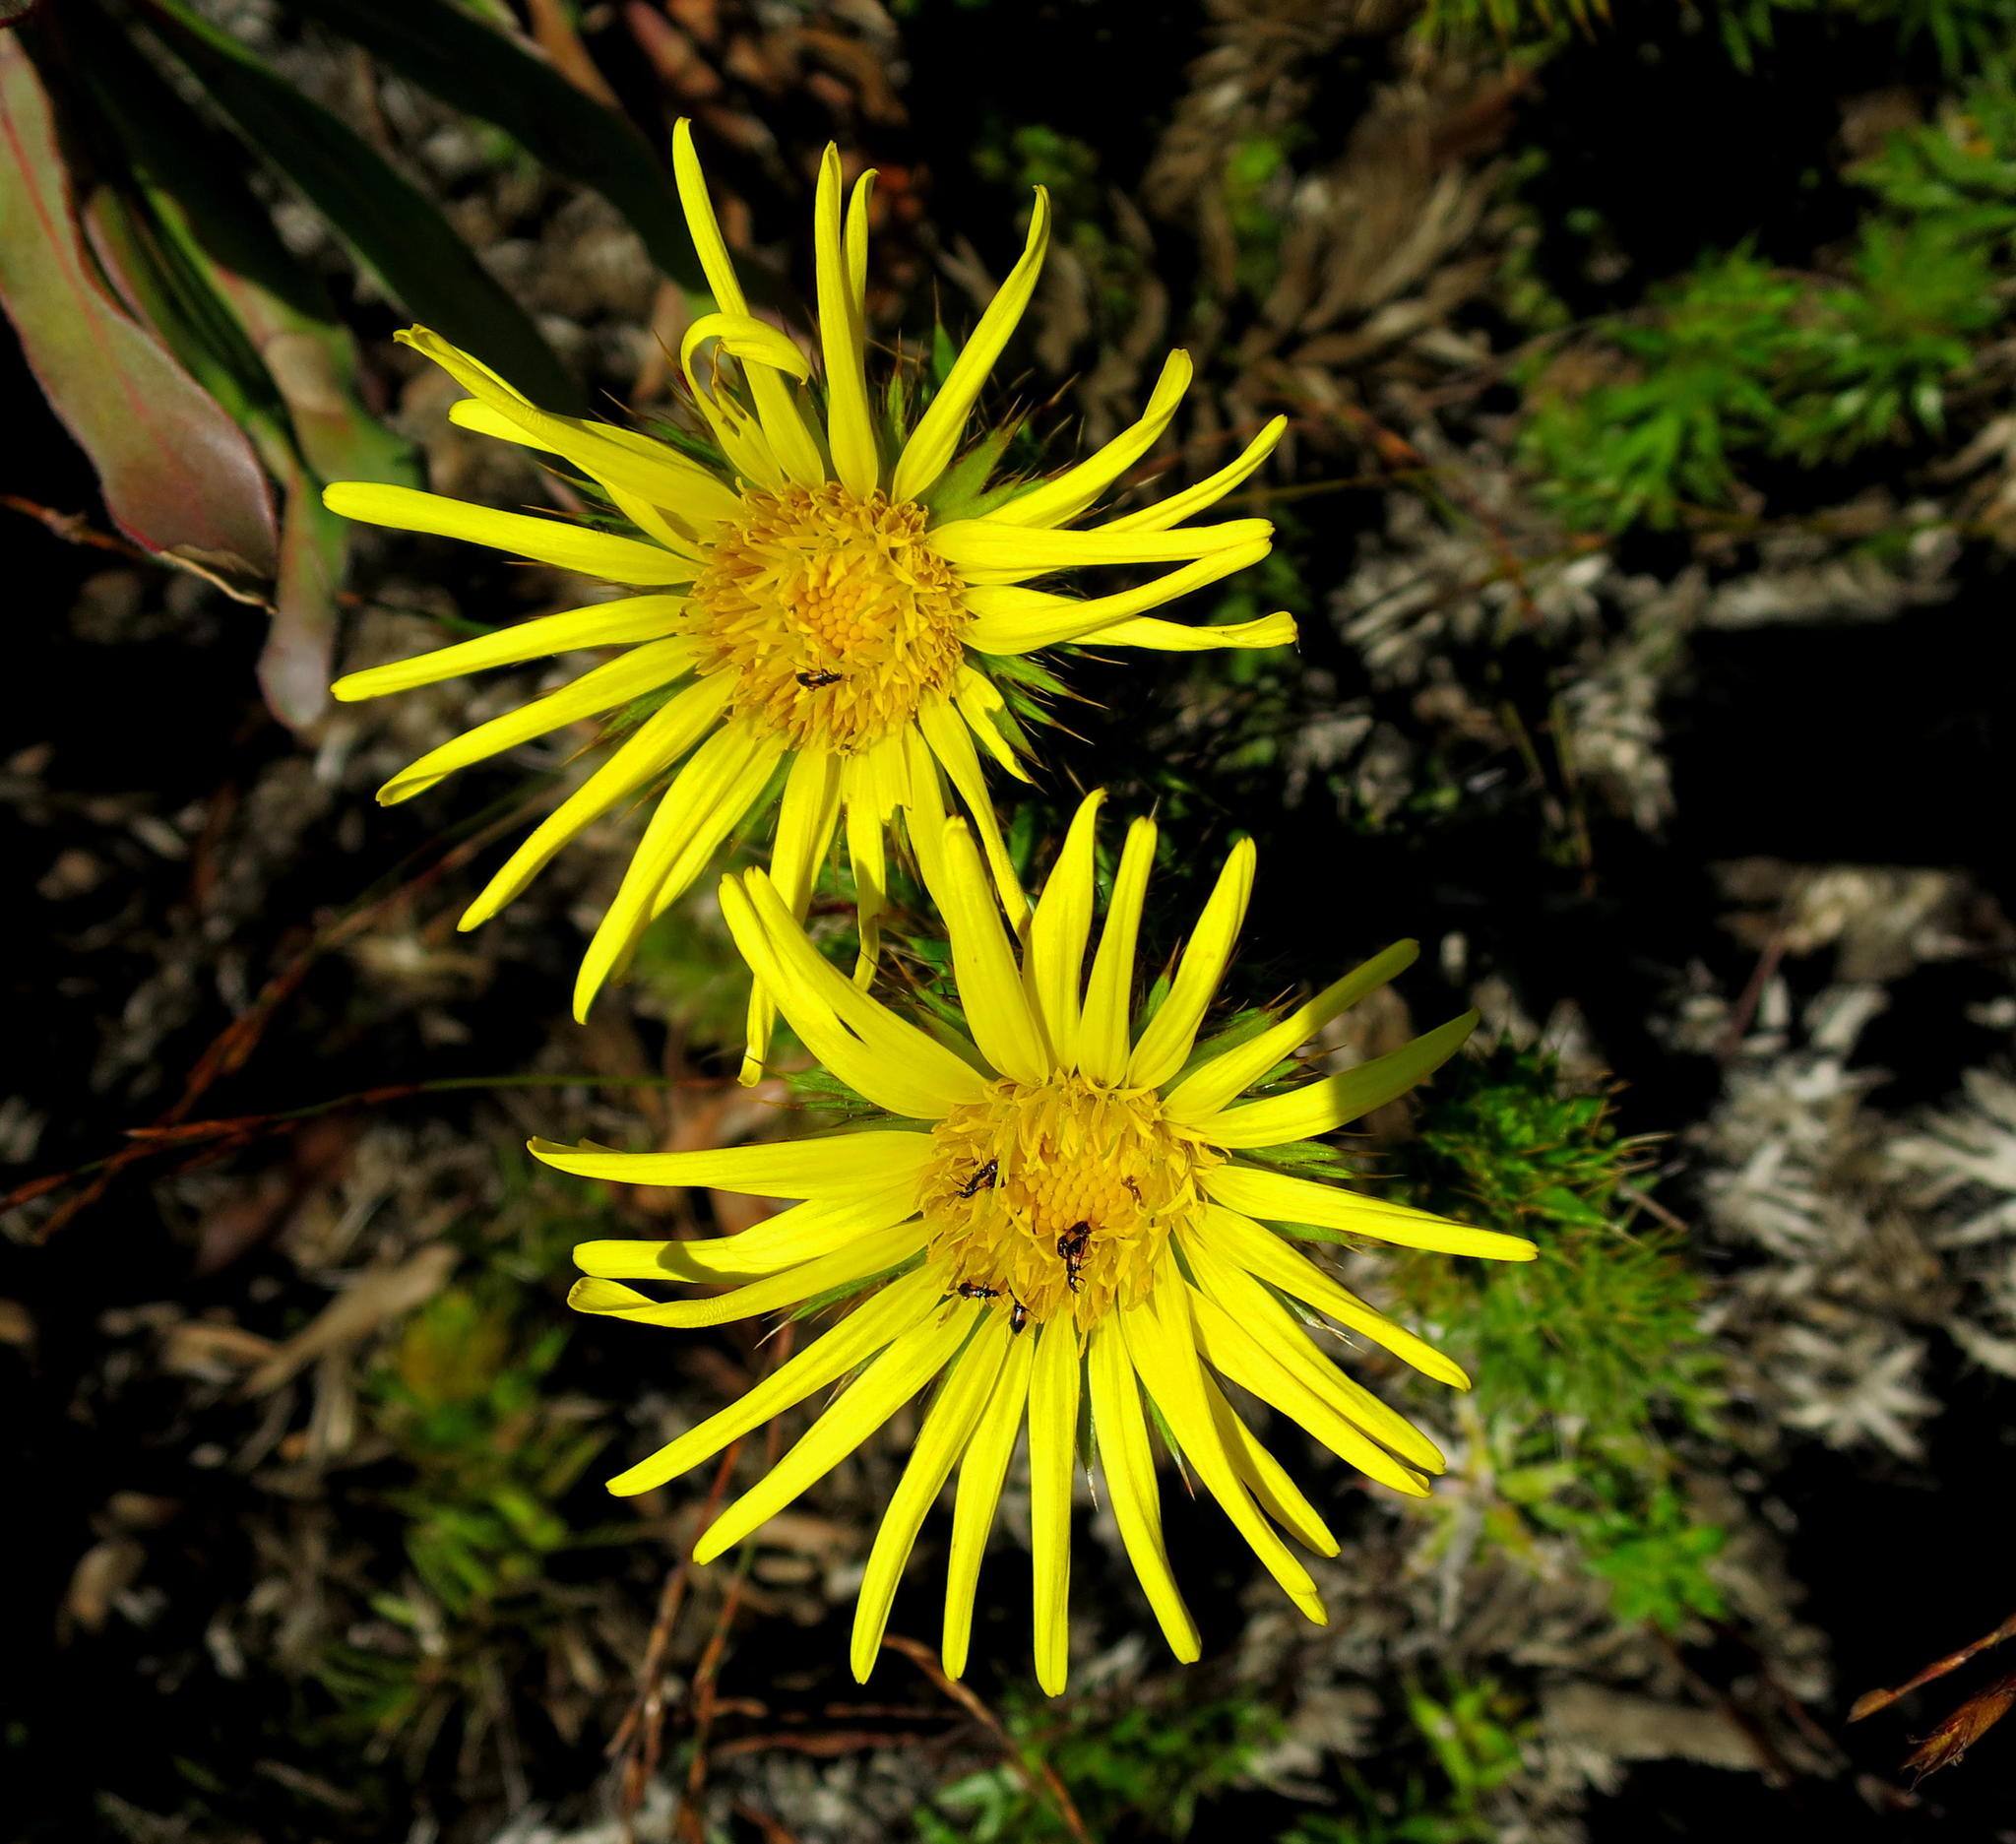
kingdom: Plantae
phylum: Tracheophyta
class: Magnoliopsida
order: Asterales
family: Asteraceae
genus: Cullumia
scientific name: Cullumia carlinoides
